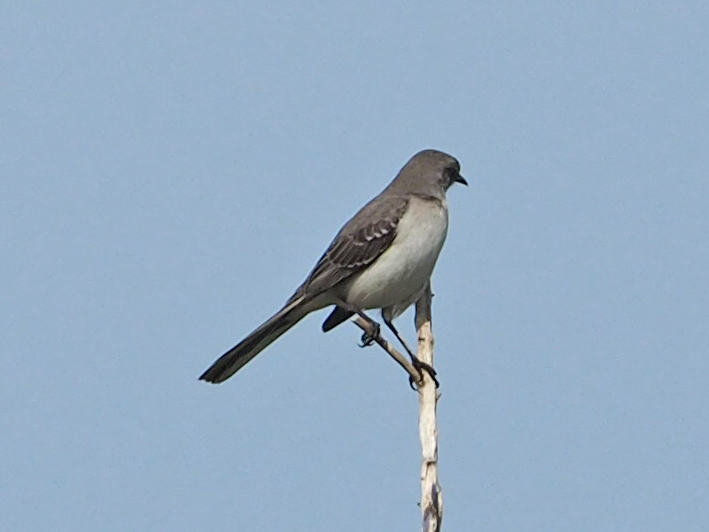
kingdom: Animalia
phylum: Chordata
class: Aves
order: Passeriformes
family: Mimidae
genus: Mimus
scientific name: Mimus polyglottos
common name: Northern mockingbird
